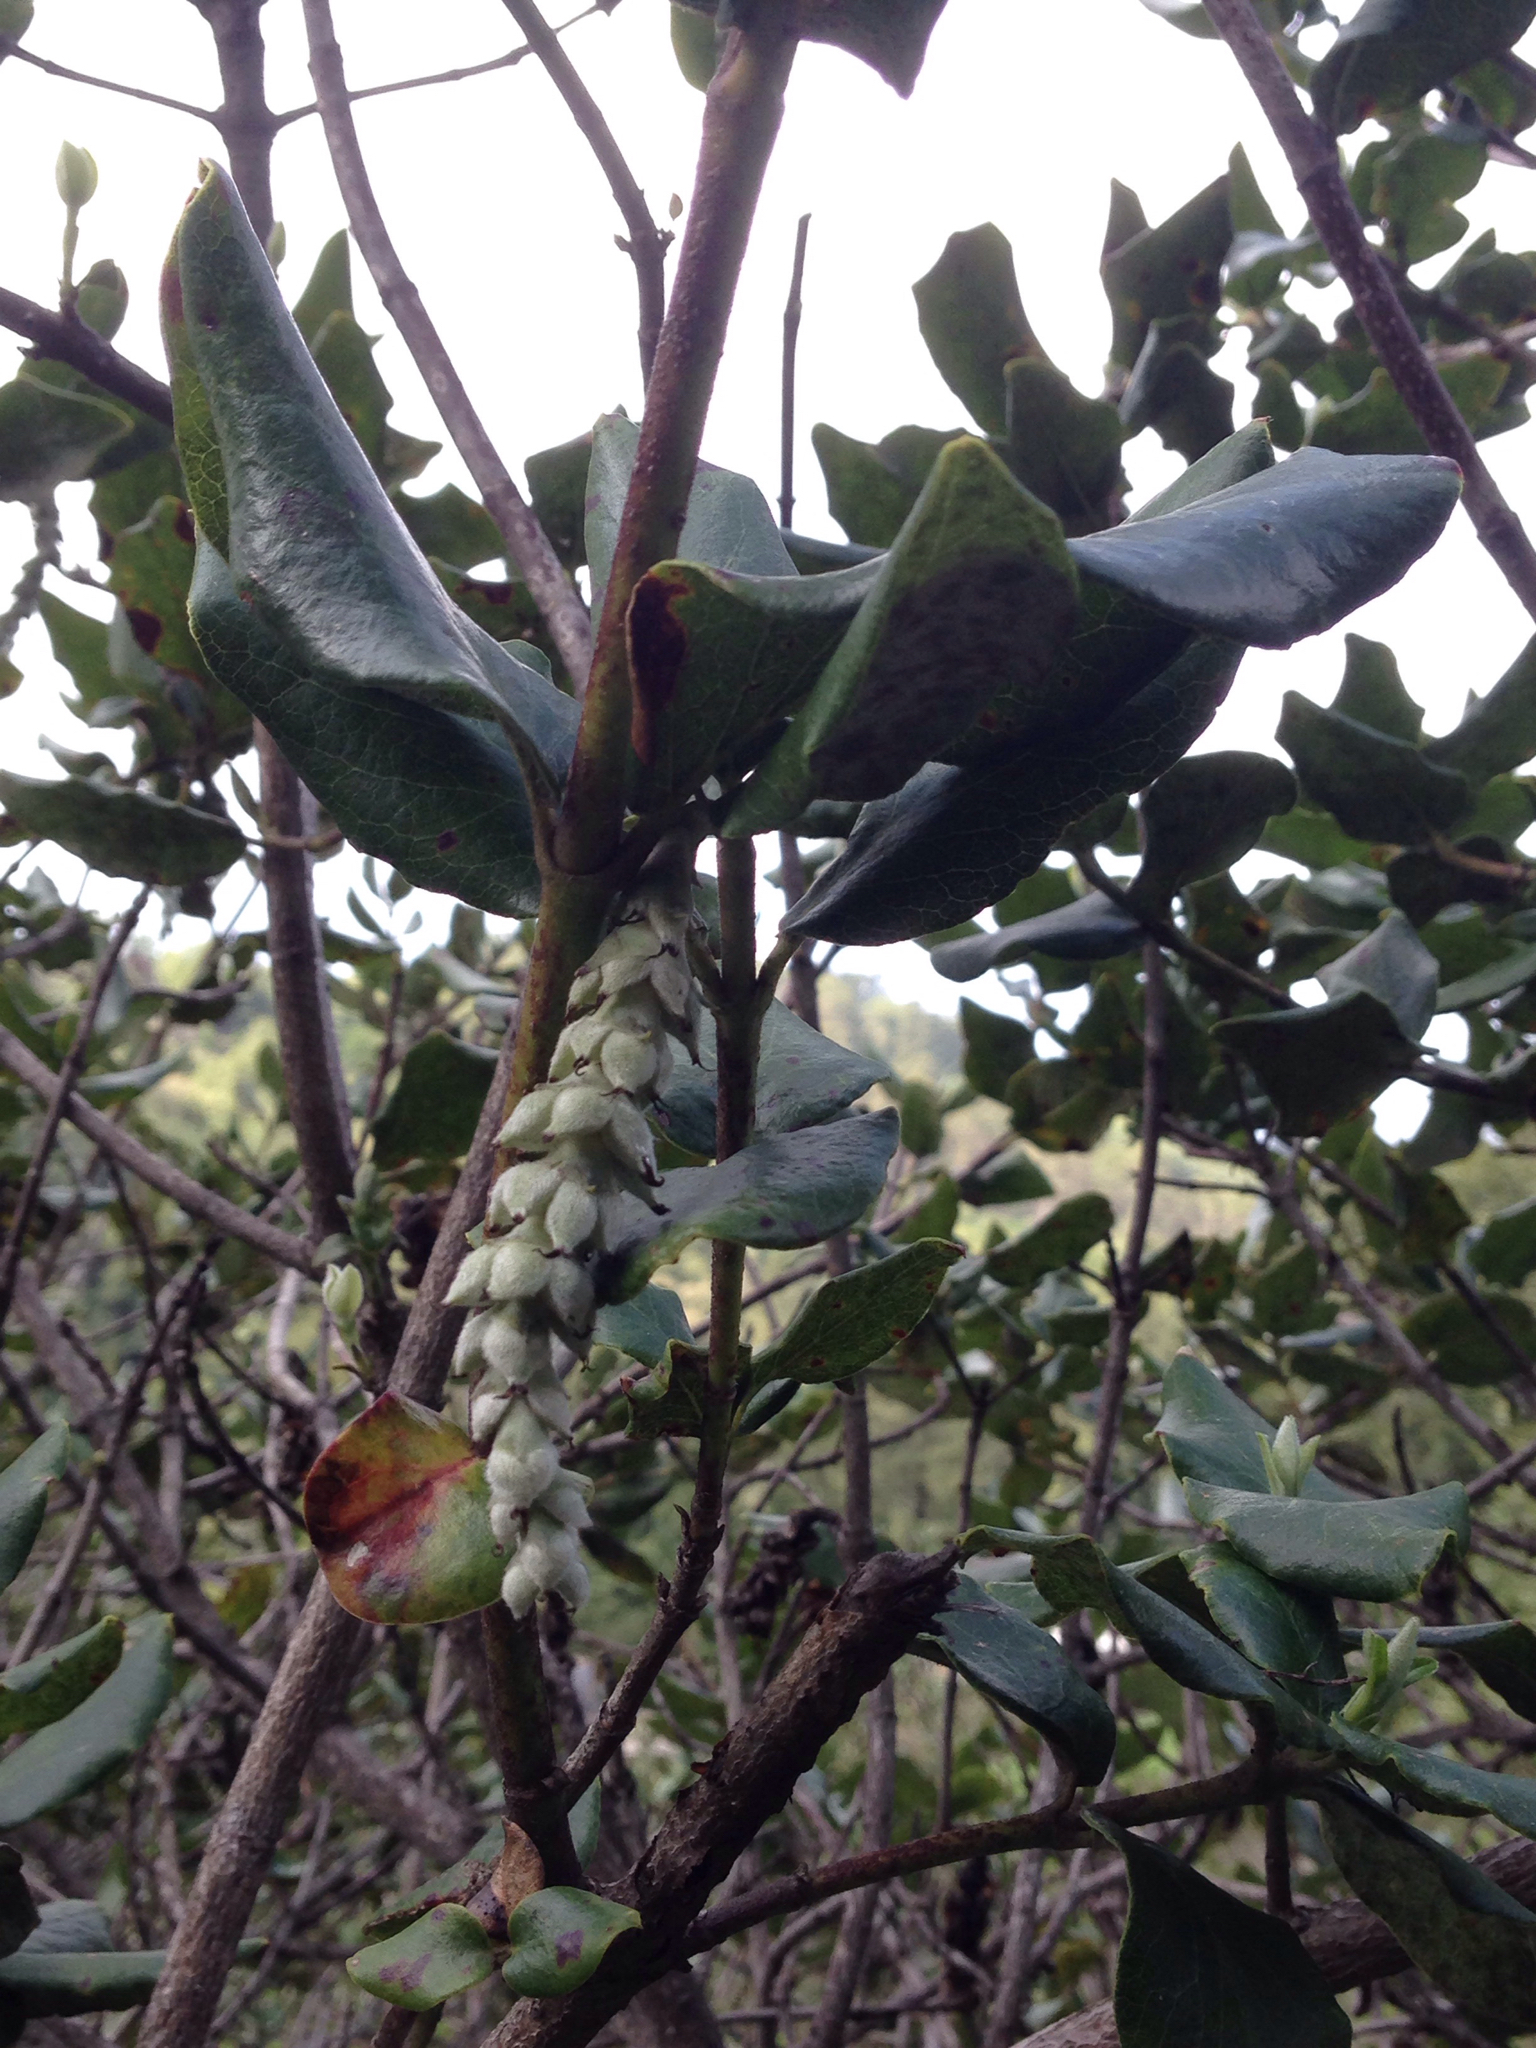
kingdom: Plantae
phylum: Tracheophyta
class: Magnoliopsida
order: Garryales
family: Garryaceae
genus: Garrya
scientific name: Garrya elliptica
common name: Silk-tassel
